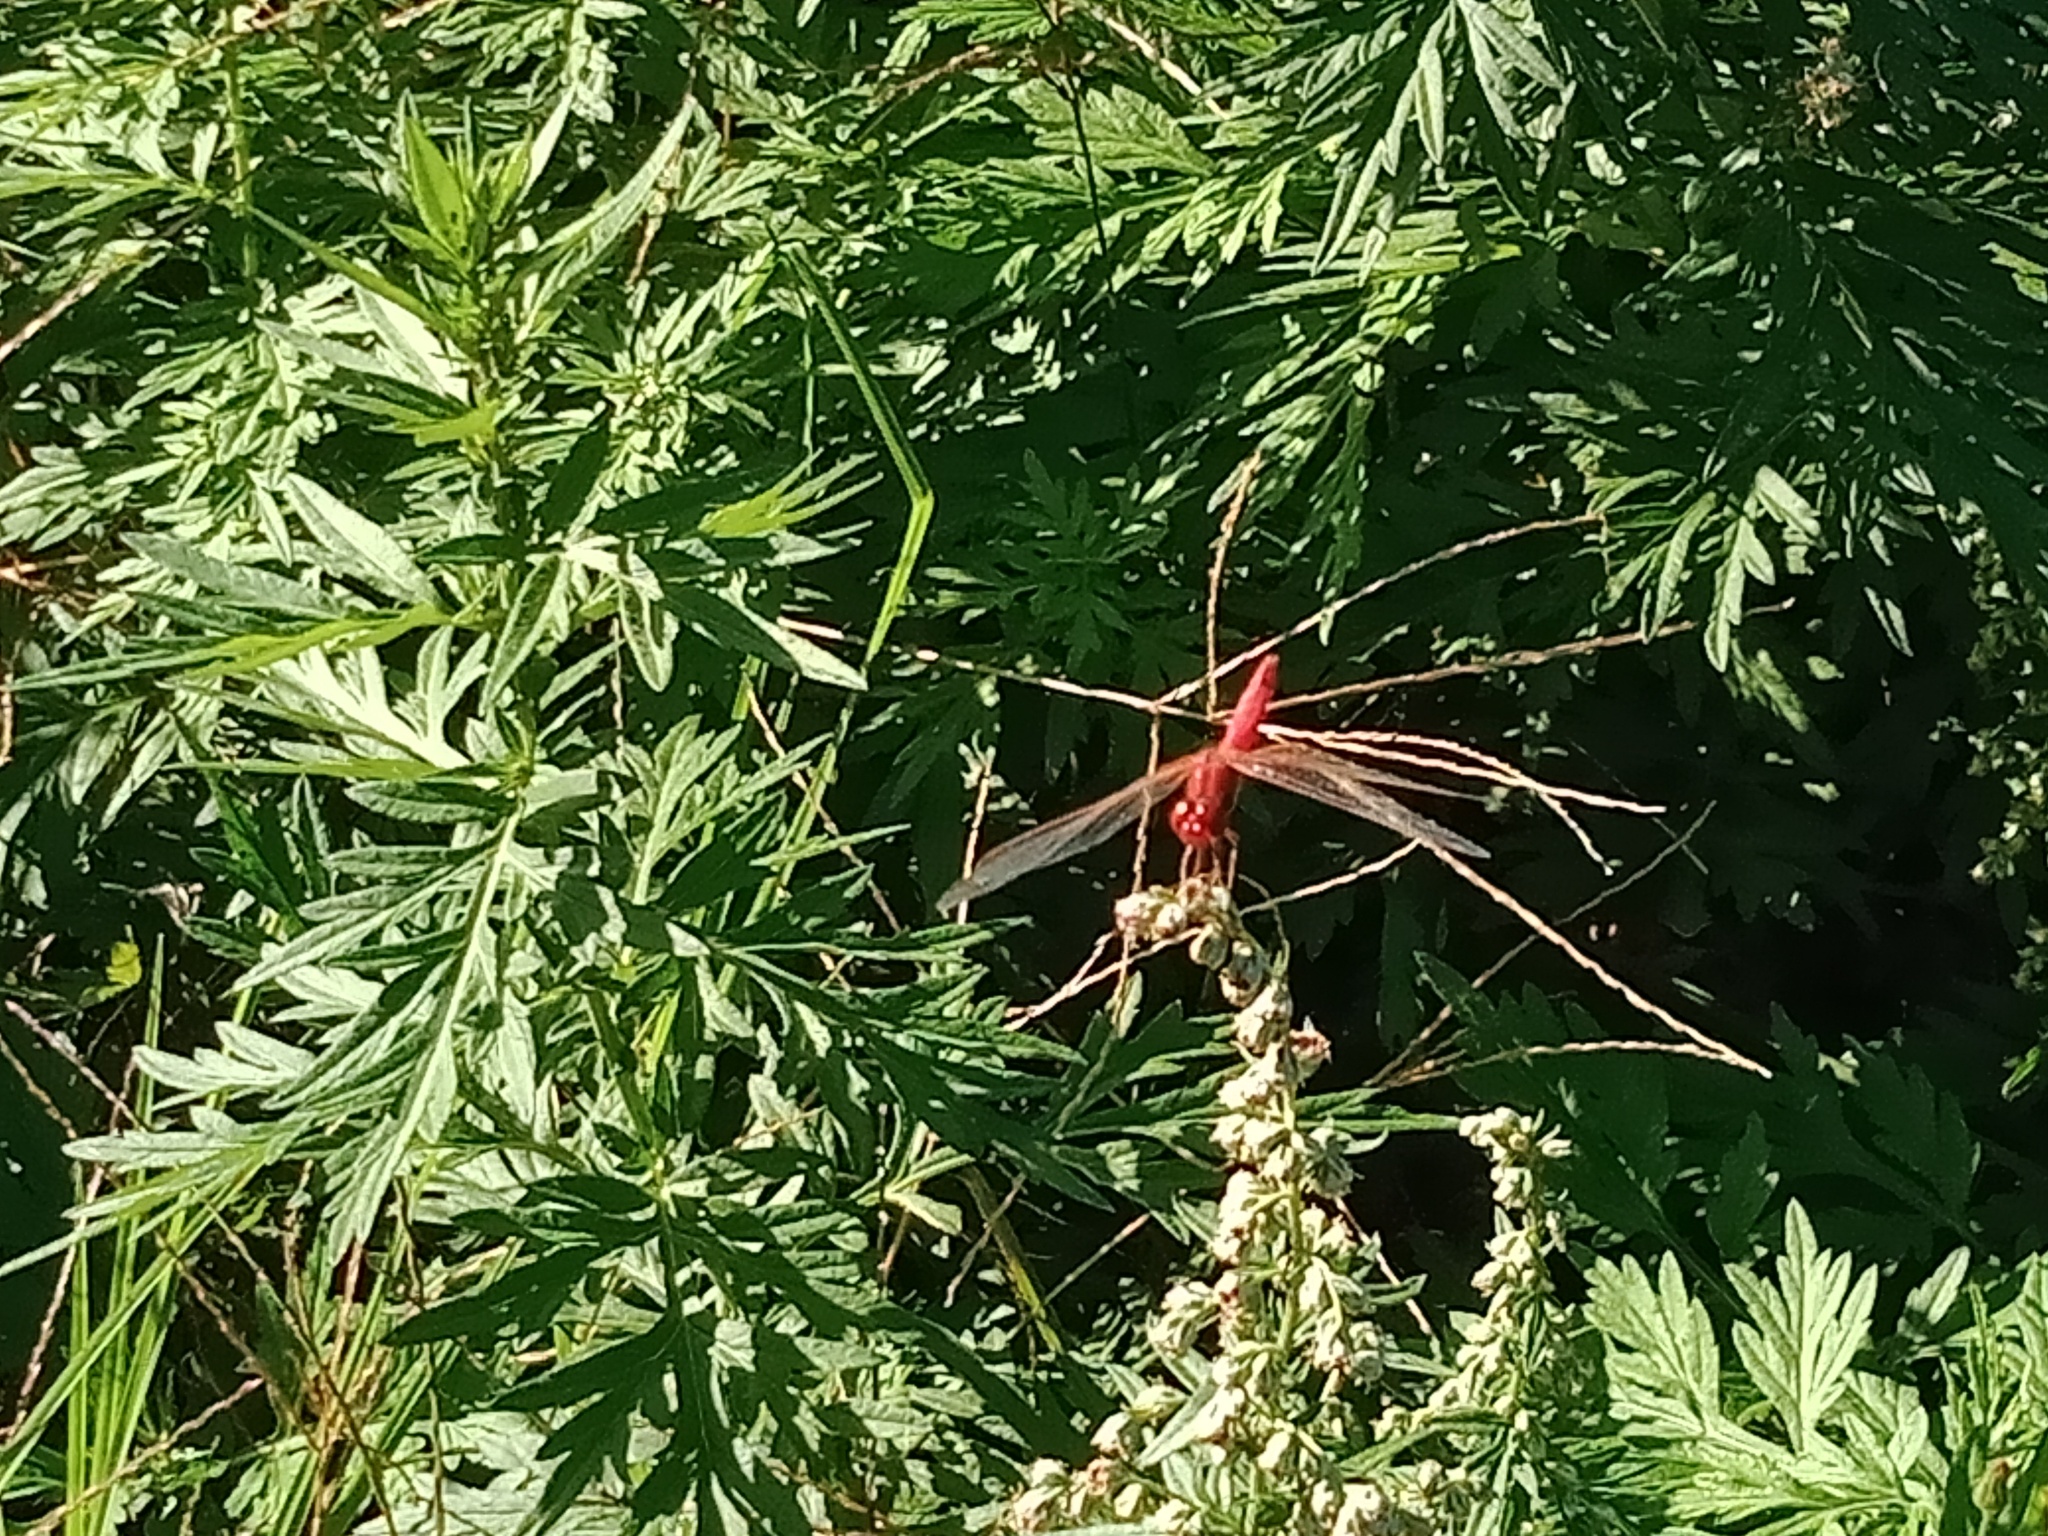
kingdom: Animalia
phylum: Arthropoda
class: Insecta
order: Odonata
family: Libellulidae
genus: Diplacodes
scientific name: Diplacodes haematodes
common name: Scarlet percher
